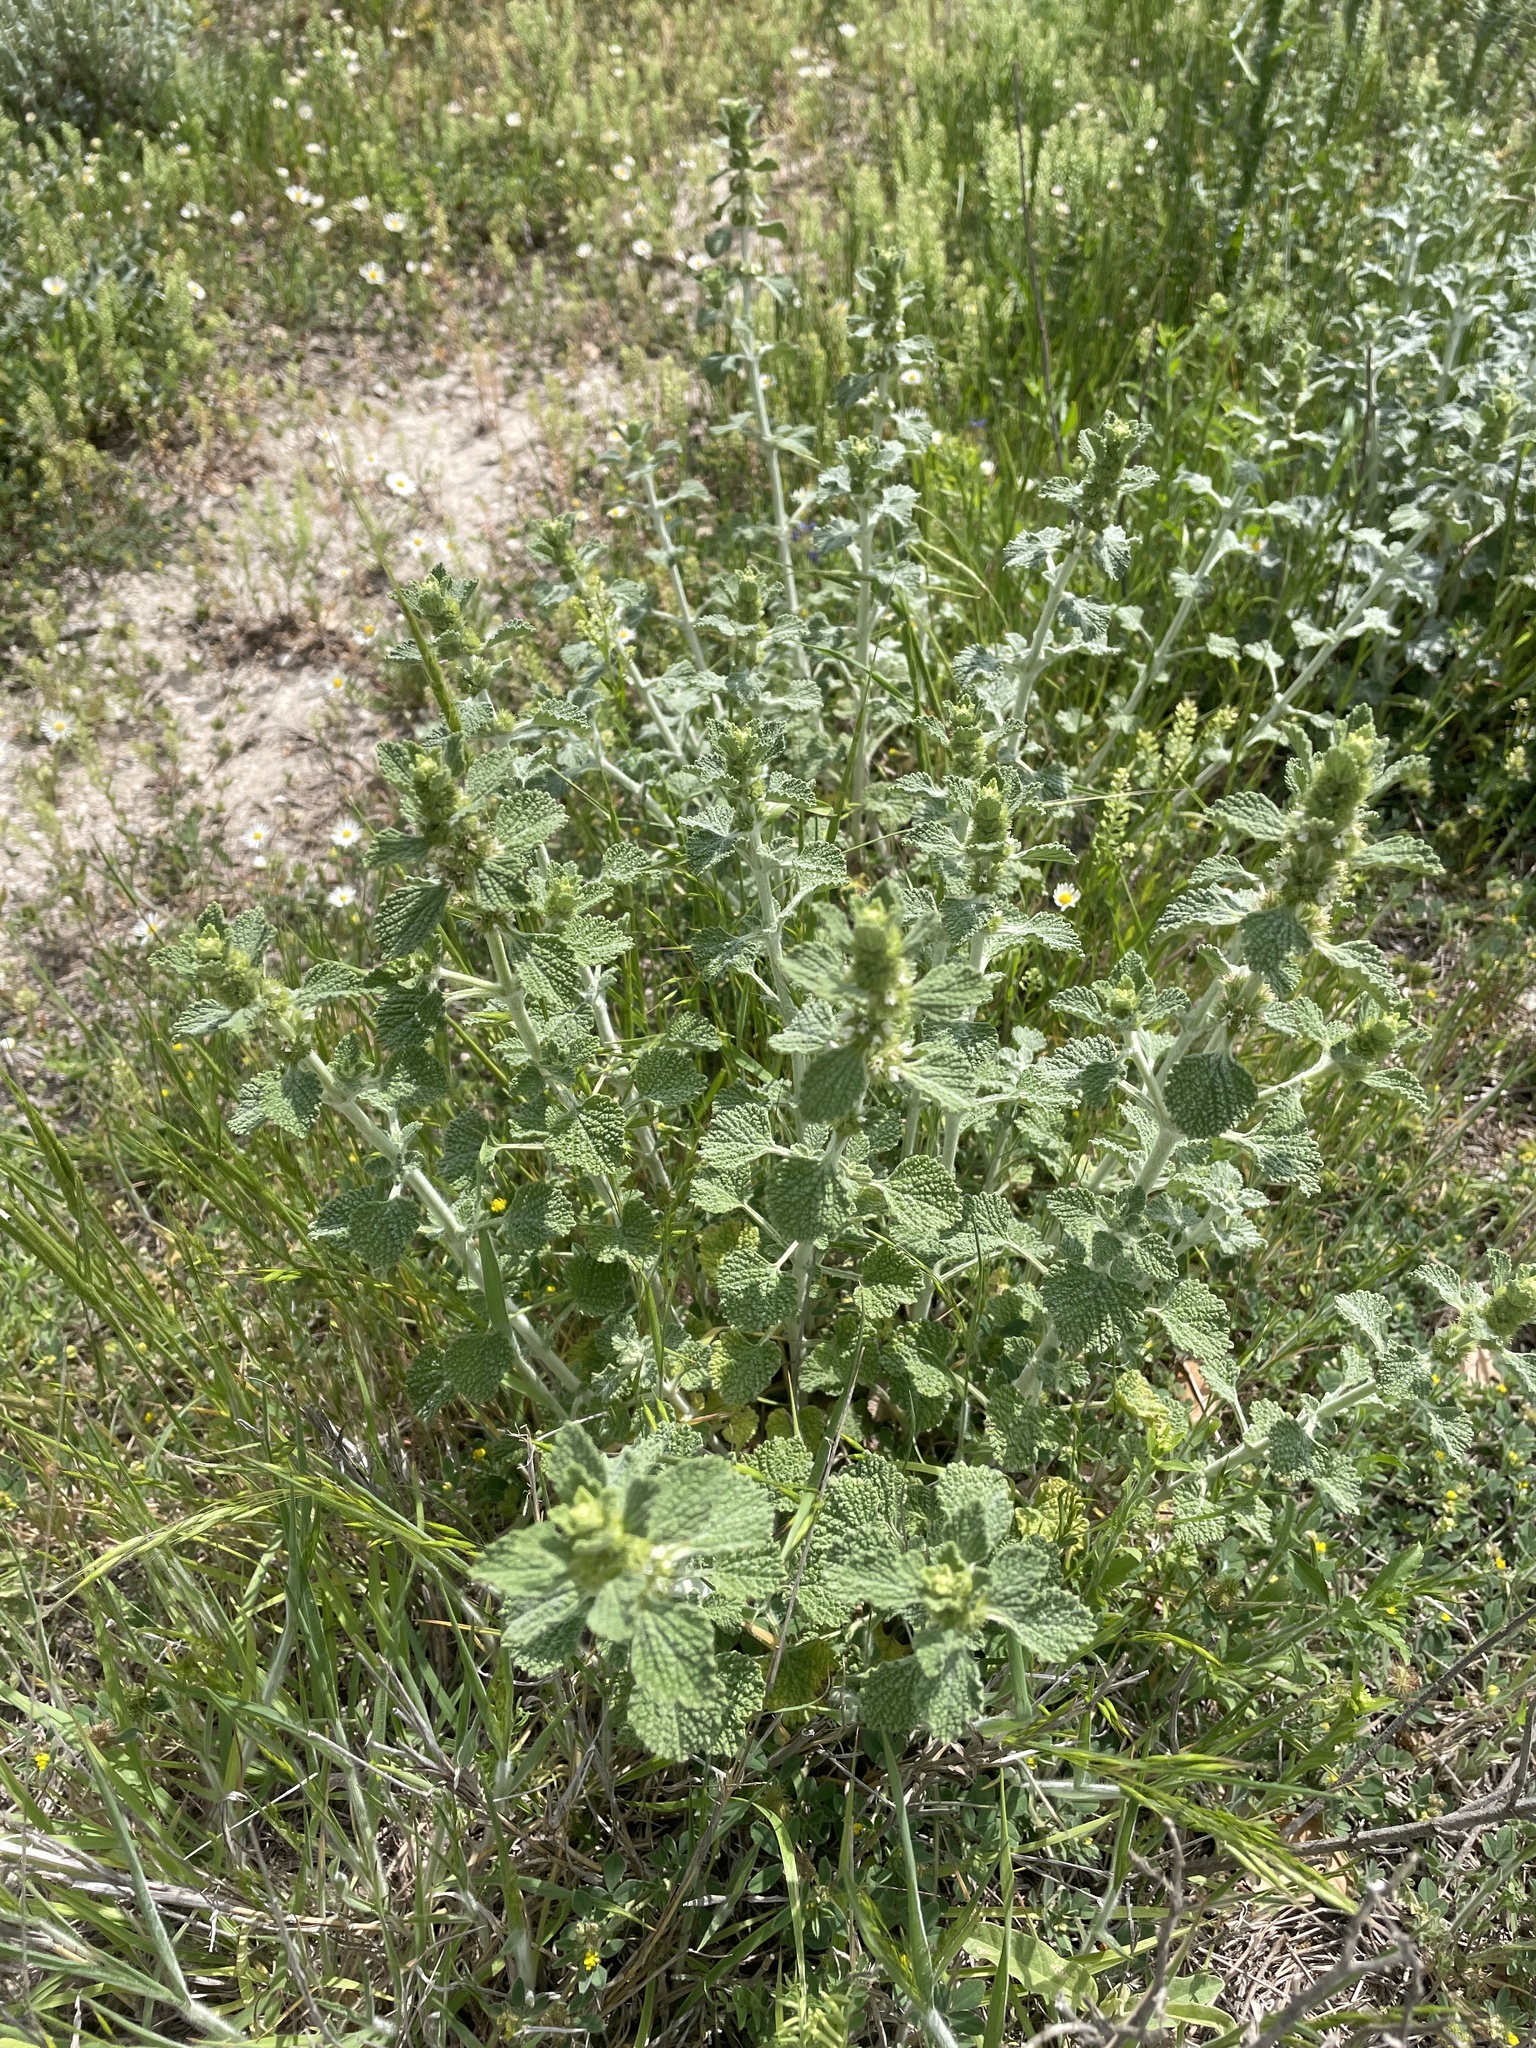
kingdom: Plantae
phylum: Tracheophyta
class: Magnoliopsida
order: Lamiales
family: Lamiaceae
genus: Marrubium
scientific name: Marrubium vulgare
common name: Horehound
